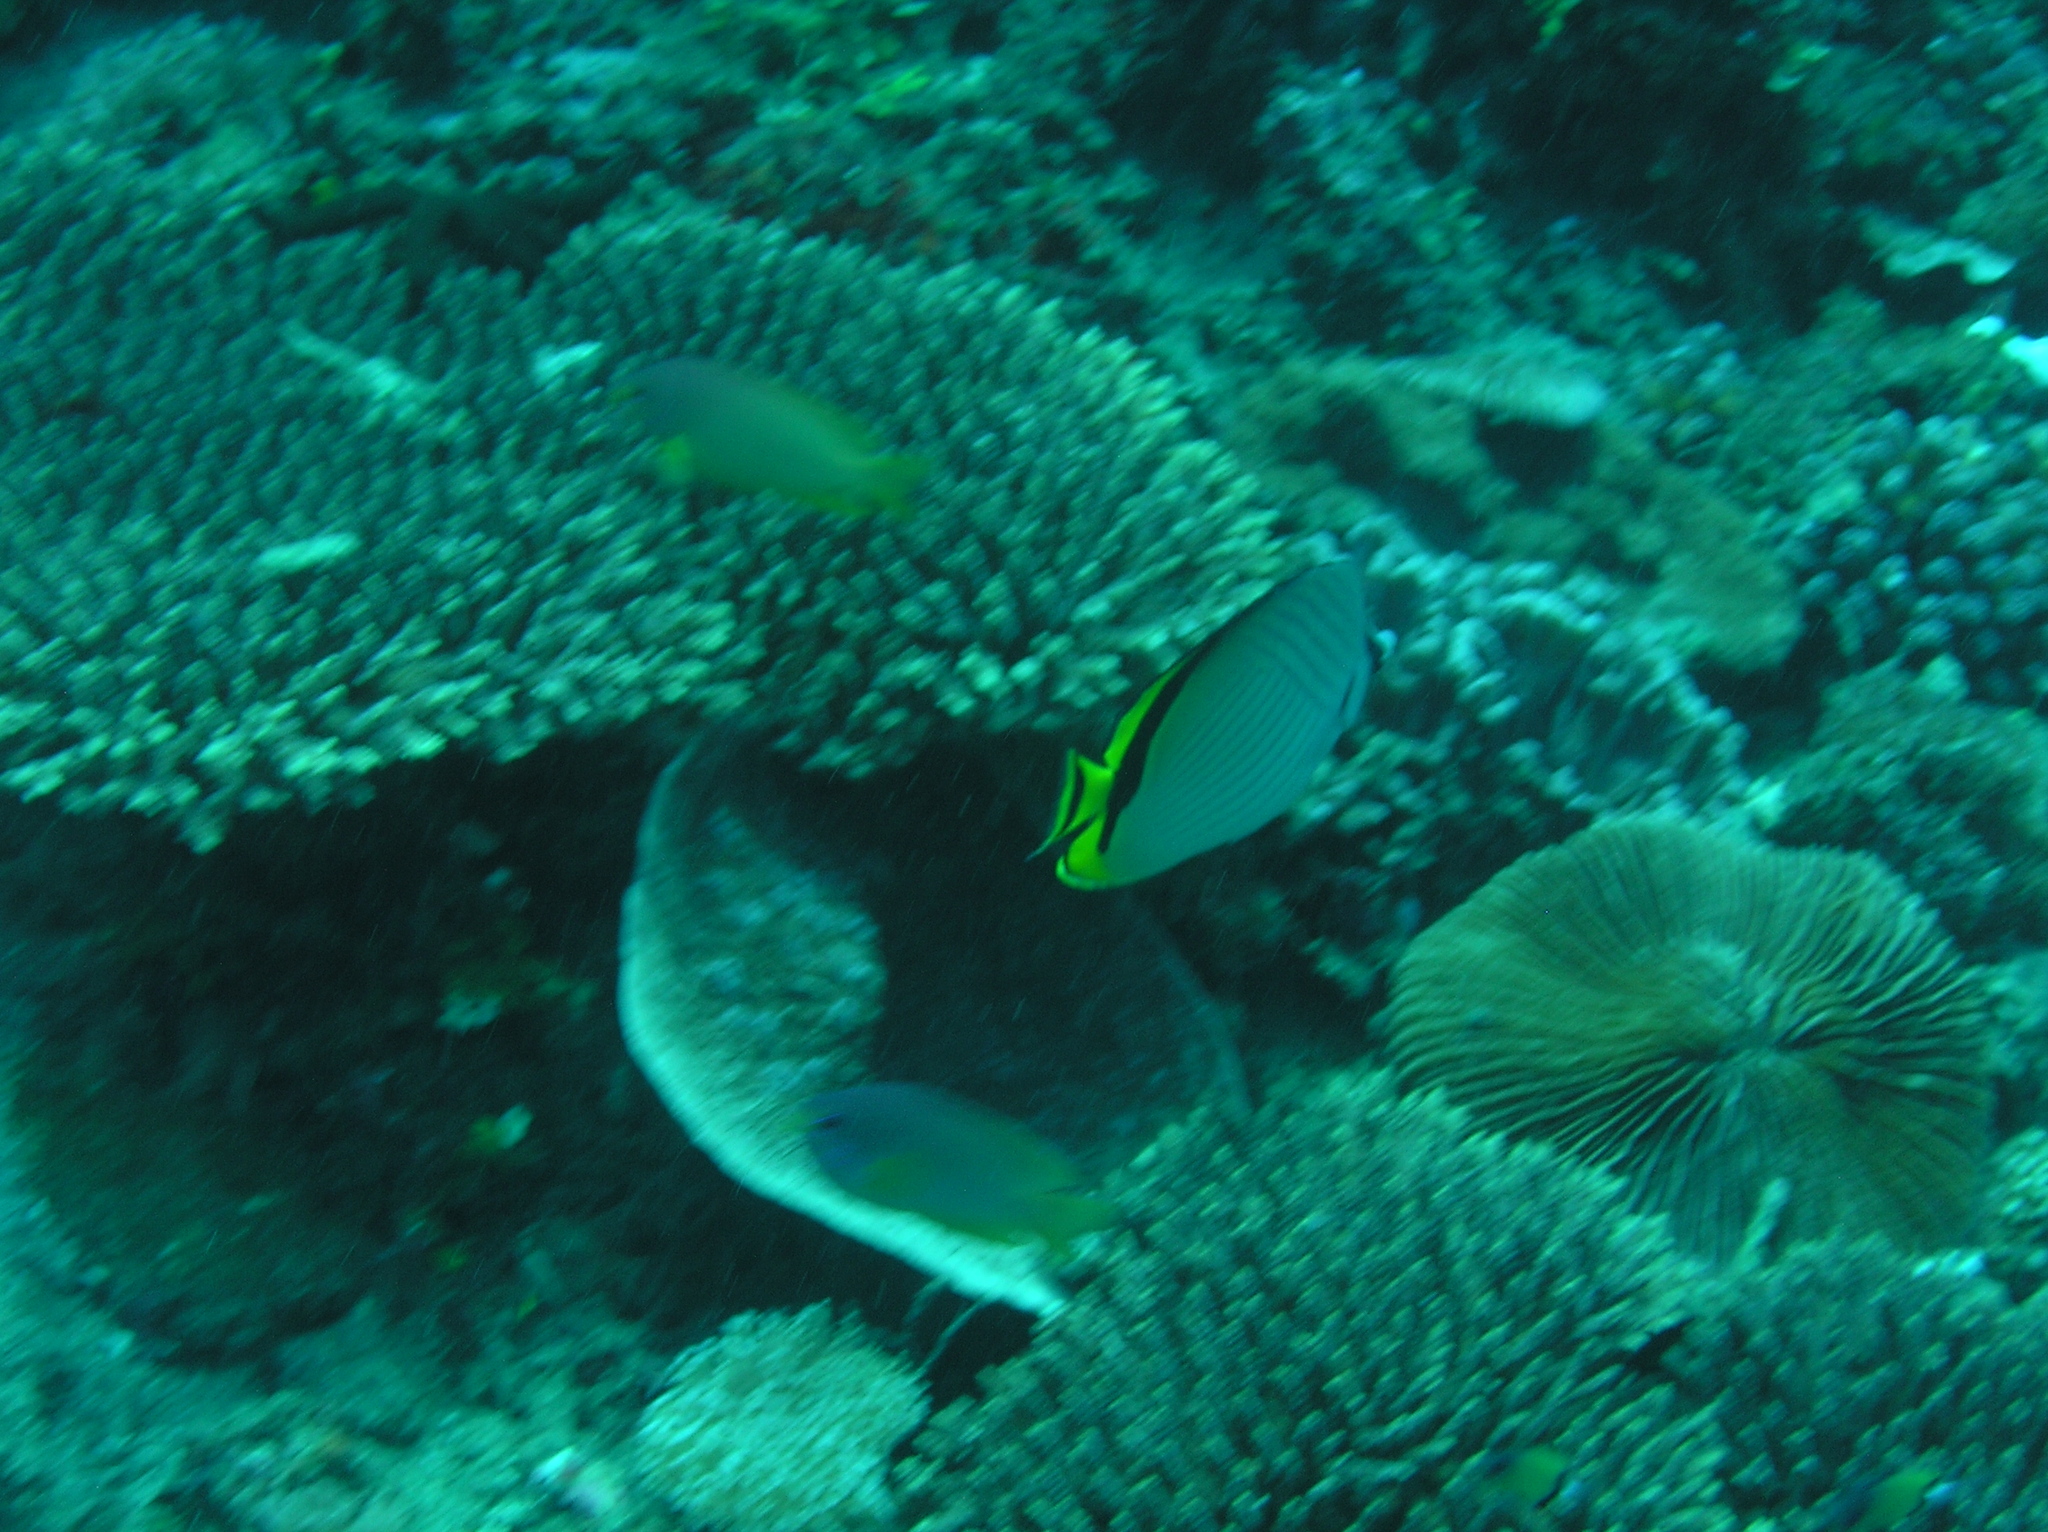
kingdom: Animalia
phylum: Chordata
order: Perciformes
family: Chaetodontidae
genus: Chaetodon
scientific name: Chaetodon vagabundus
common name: Vagabond butterflyfish
